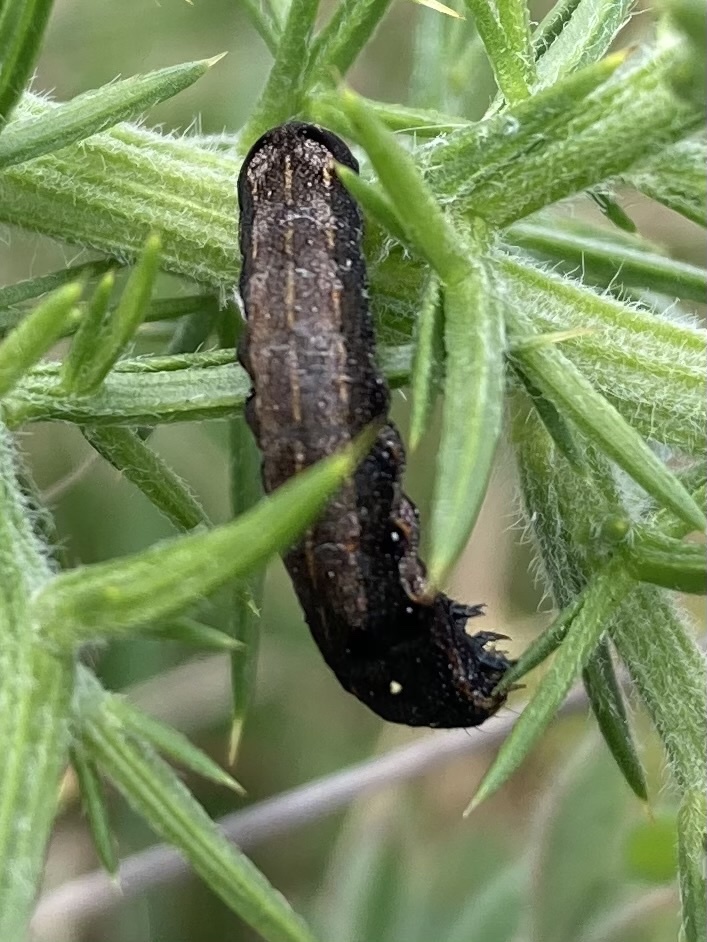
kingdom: Animalia
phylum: Arthropoda
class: Insecta
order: Lepidoptera
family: Noctuidae
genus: Spodoptera
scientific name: Spodoptera litura
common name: Asian cotton leafworm
